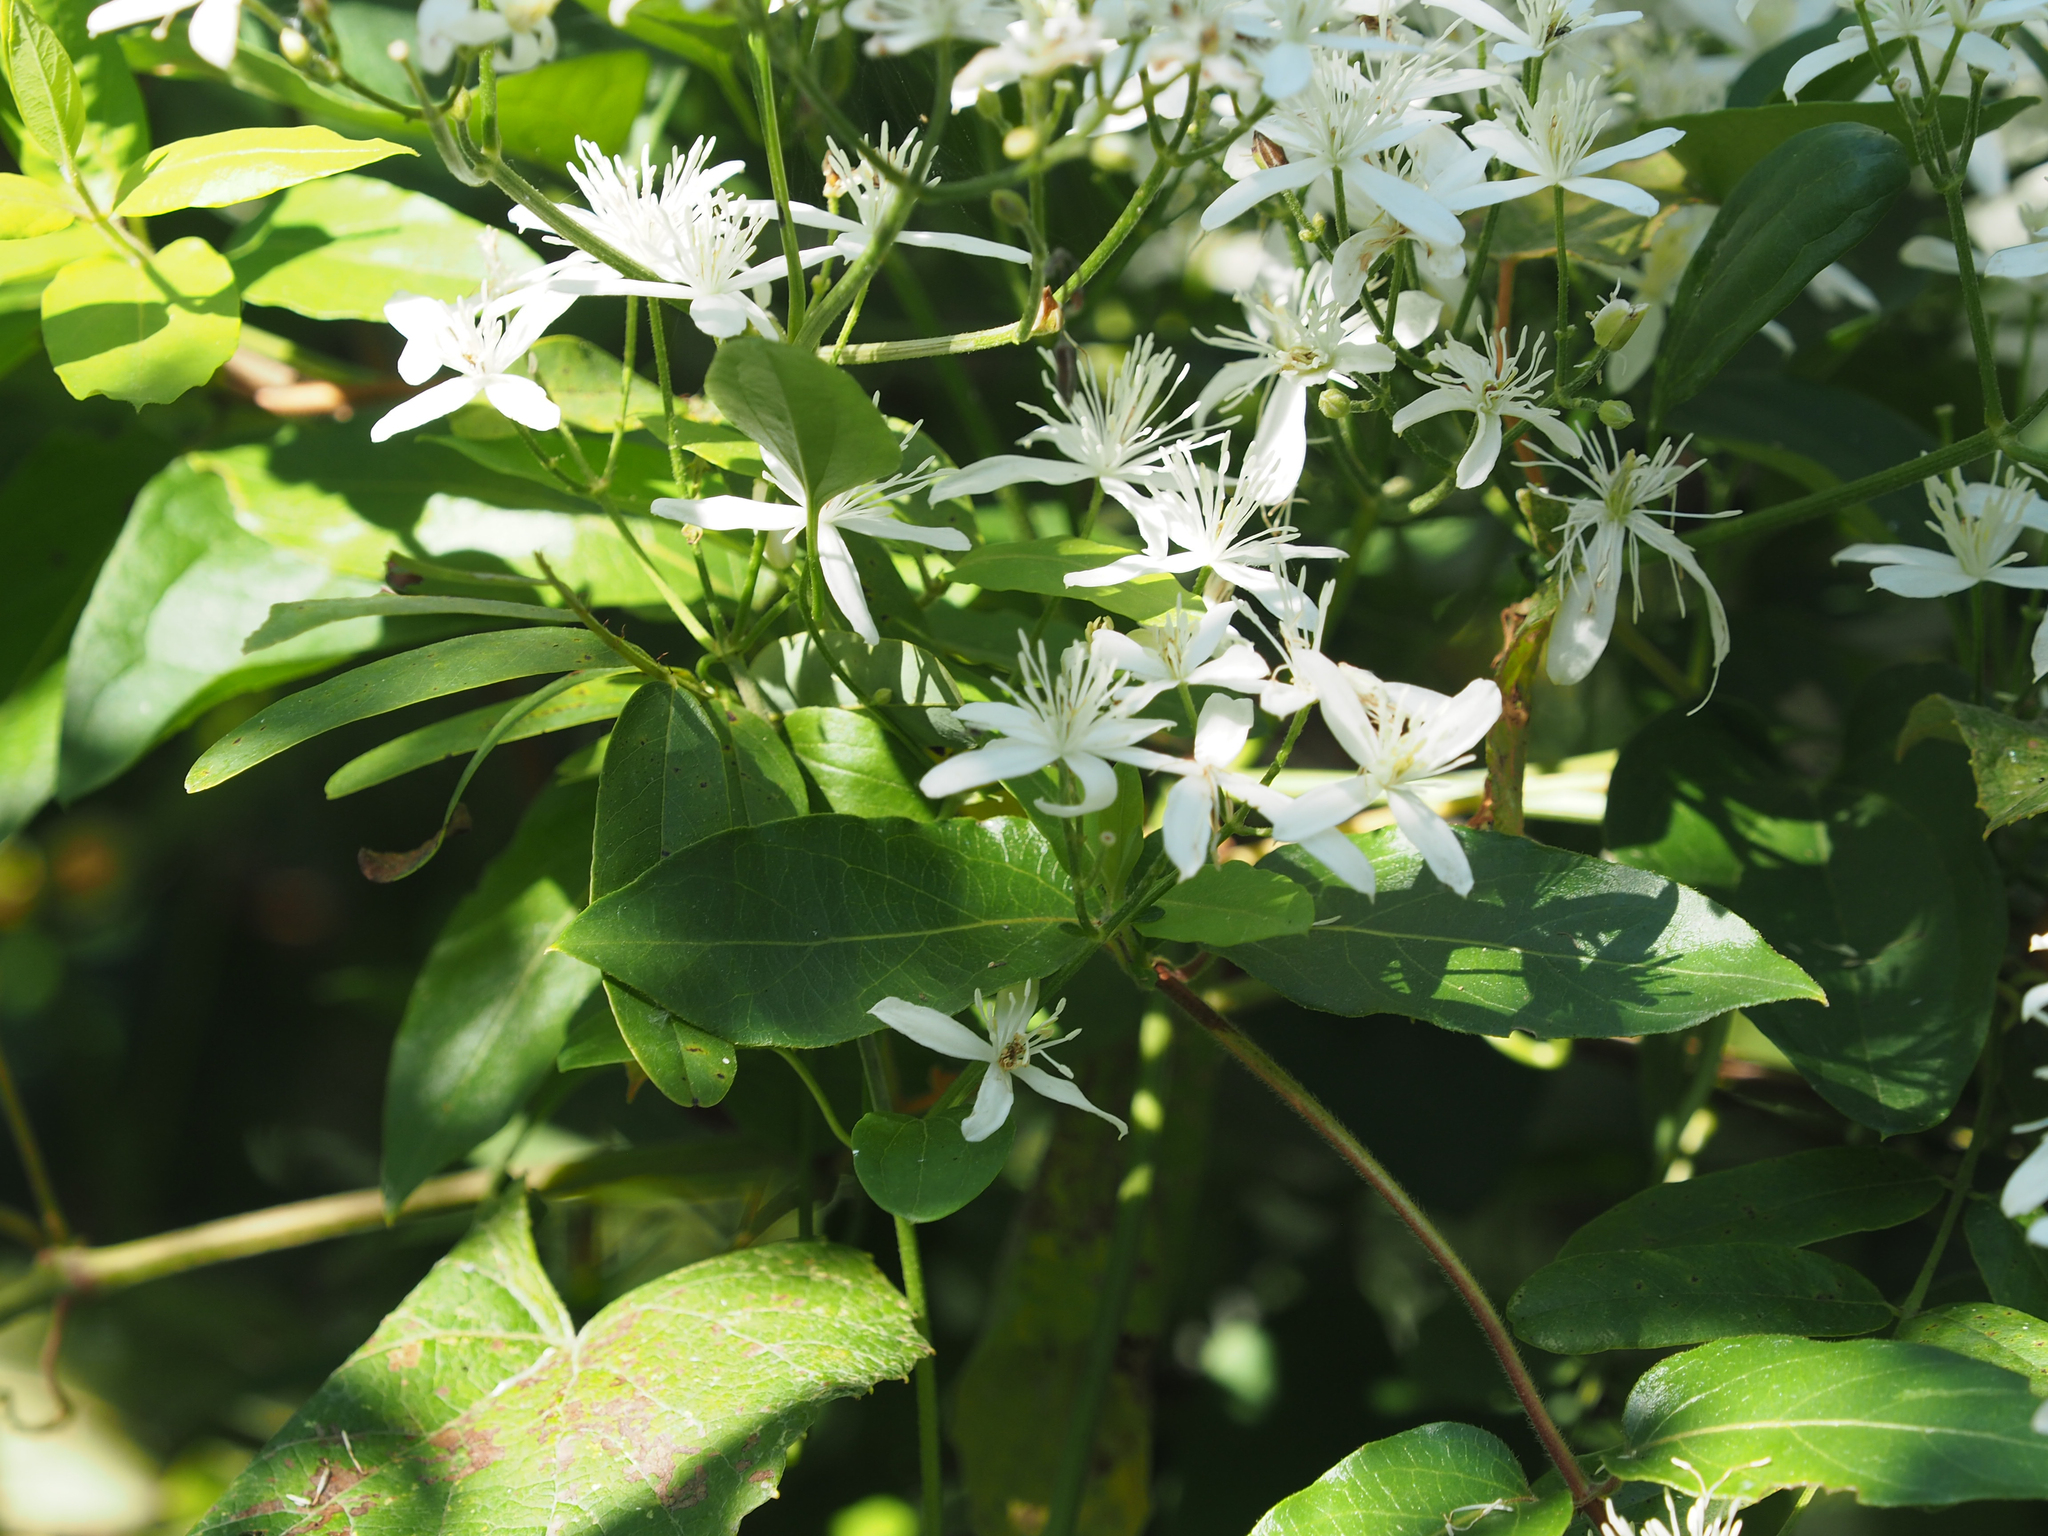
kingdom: Plantae
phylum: Tracheophyta
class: Magnoliopsida
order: Ranunculales
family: Ranunculaceae
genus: Clematis
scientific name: Clematis terniflora
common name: Sweet autumn clematis
